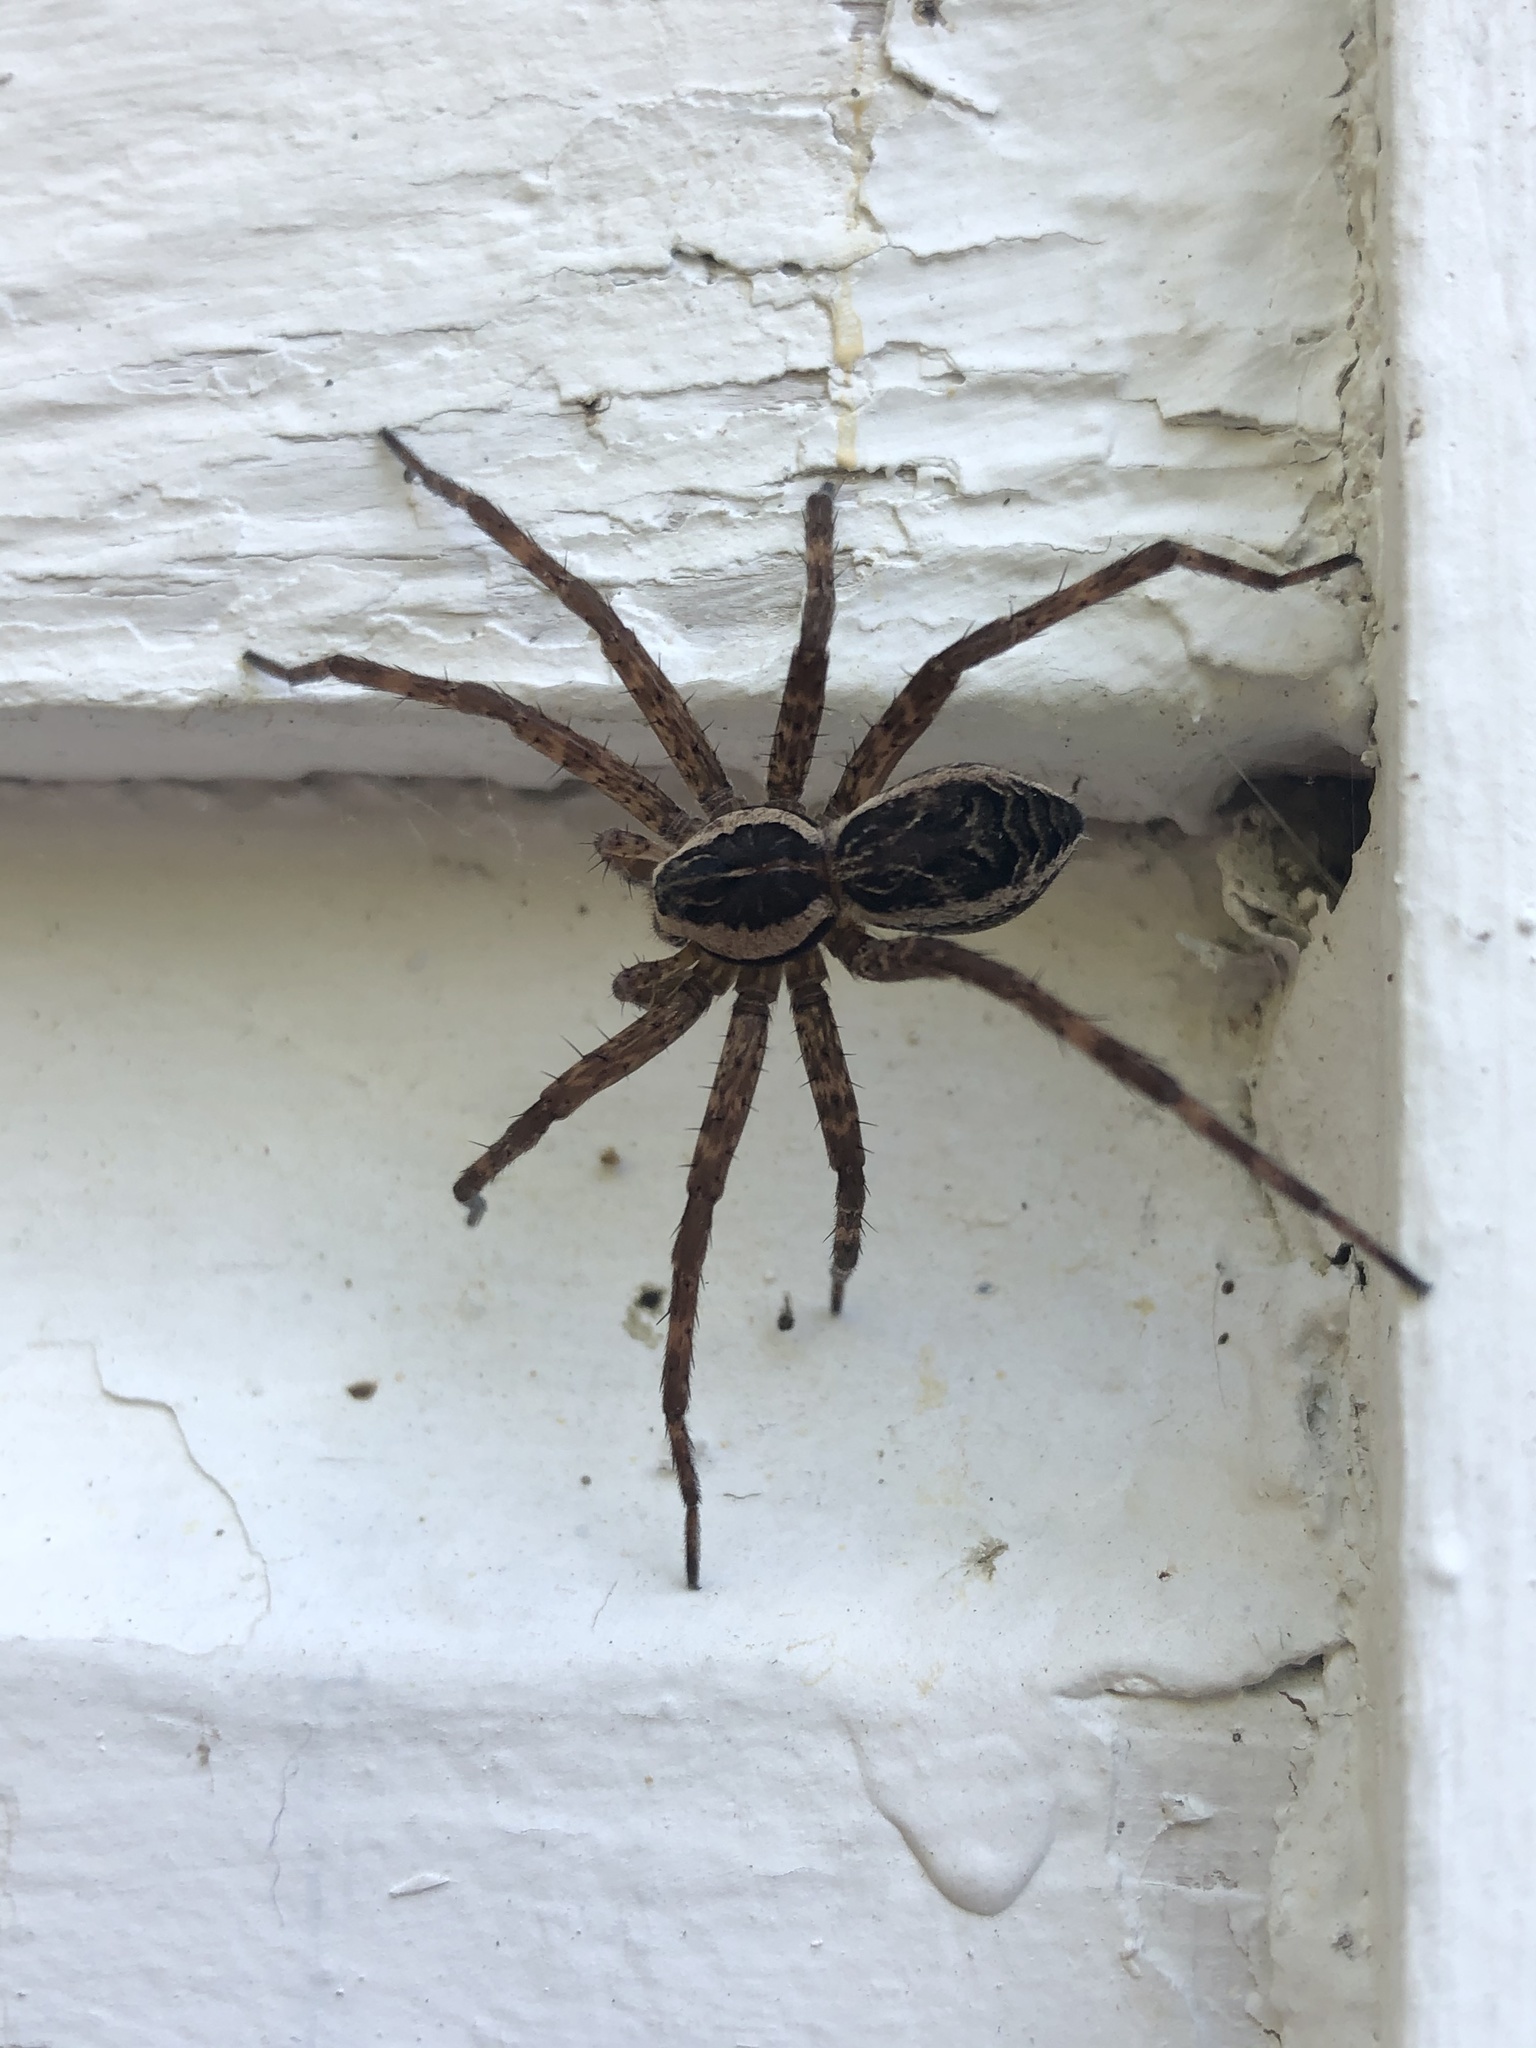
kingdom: Animalia
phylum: Arthropoda
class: Arachnida
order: Araneae
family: Pisauridae
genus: Dolomedes
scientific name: Dolomedes scriptus
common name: Striped fishing spider
